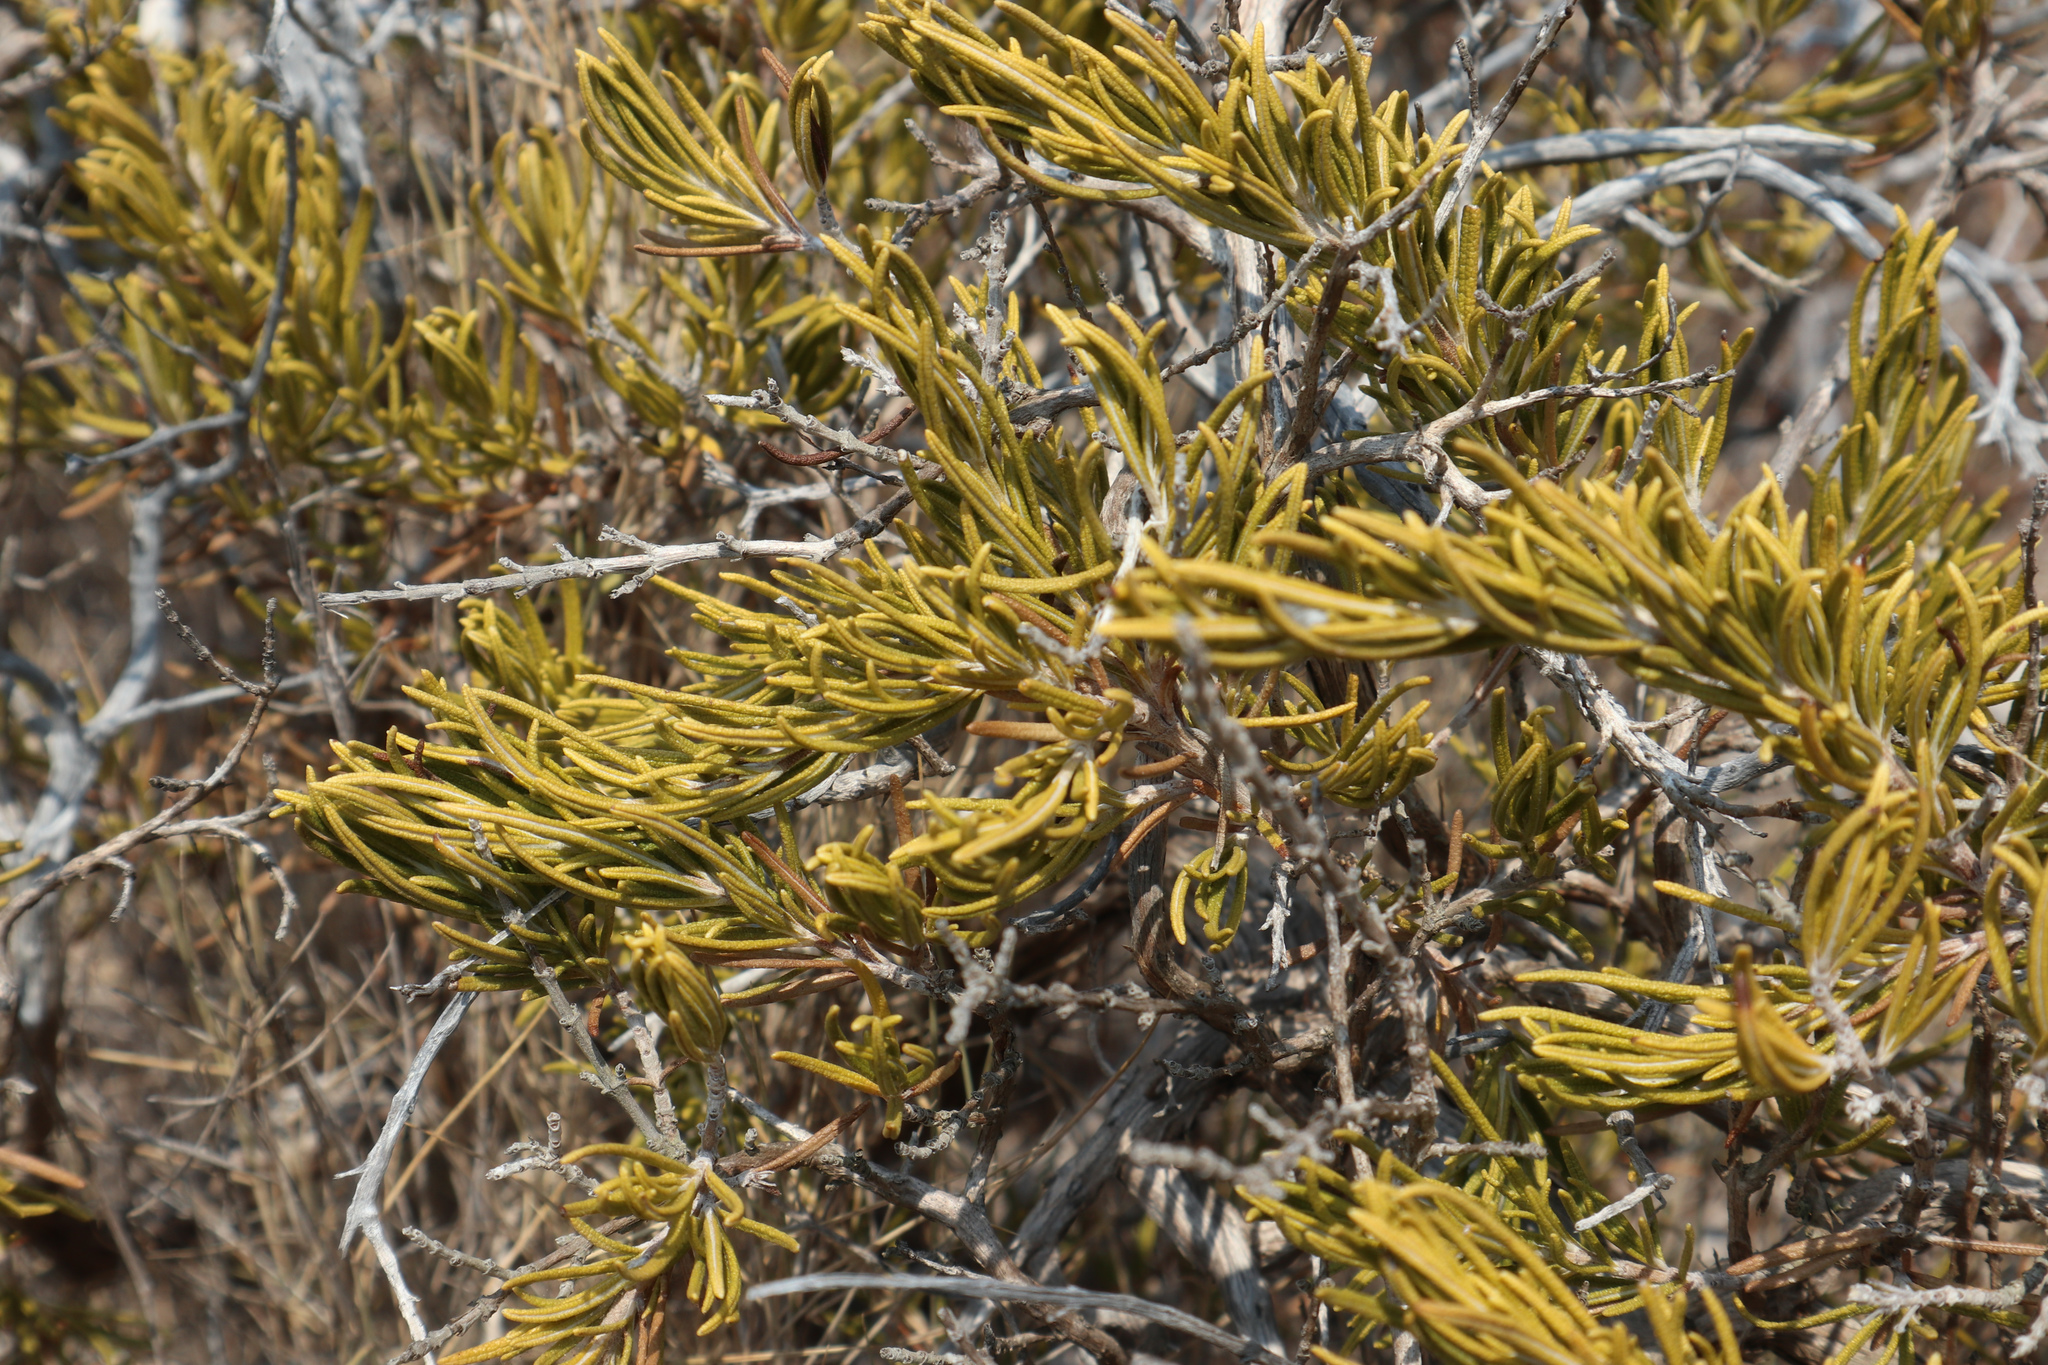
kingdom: Plantae
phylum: Tracheophyta
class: Magnoliopsida
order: Lamiales
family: Lamiaceae
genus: Salvia
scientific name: Salvia rosmarinus
